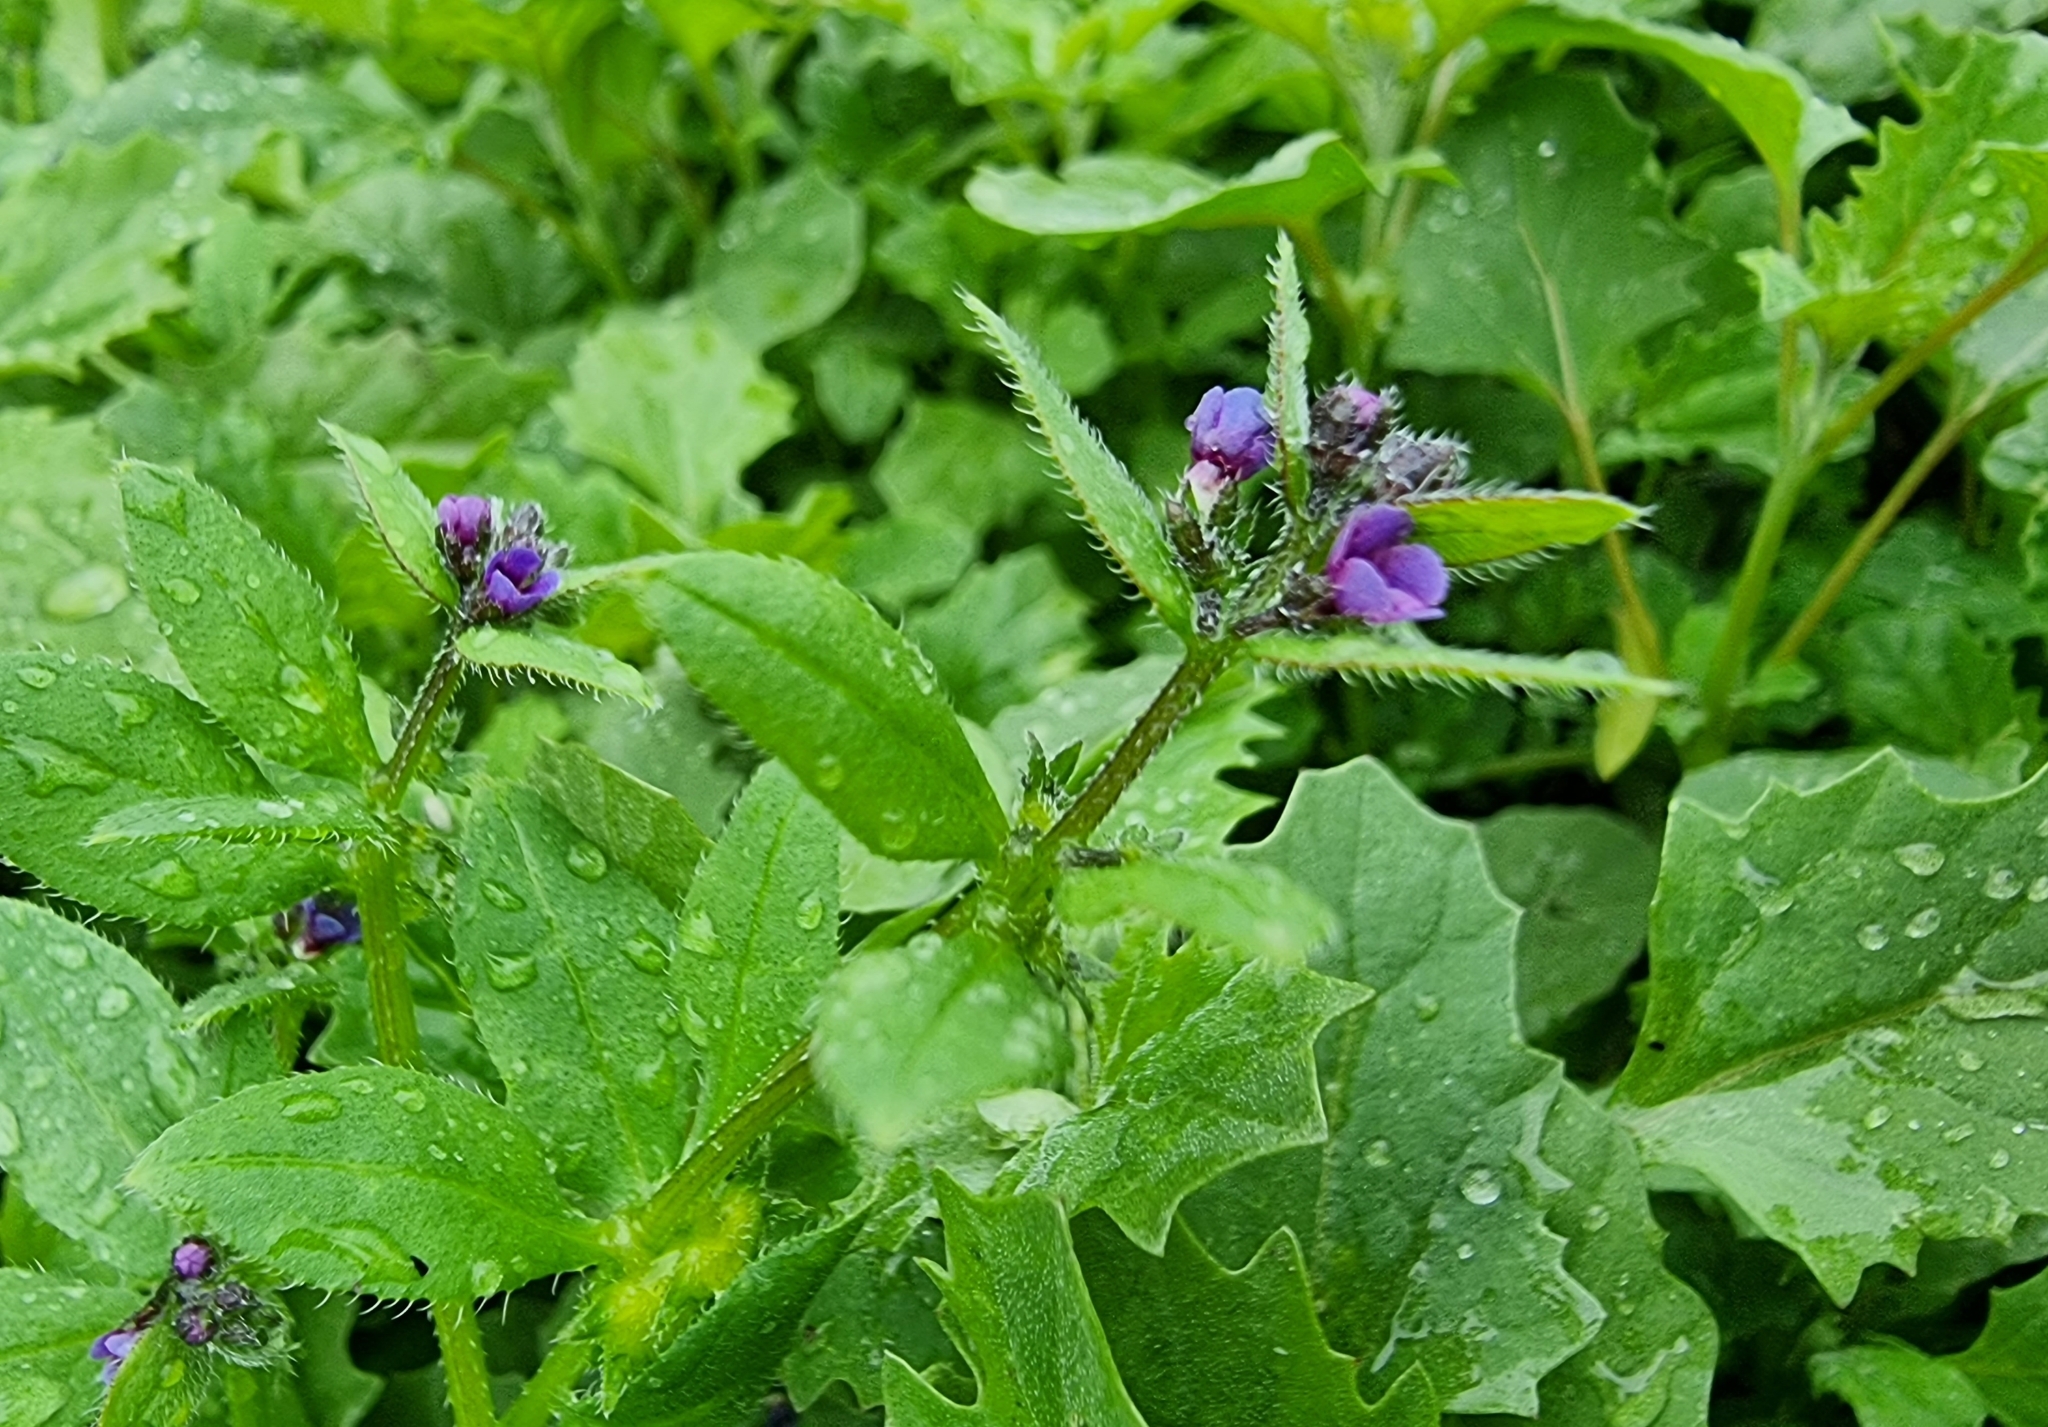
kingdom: Plantae
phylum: Tracheophyta
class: Magnoliopsida
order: Boraginales
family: Boraginaceae
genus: Asperugo
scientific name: Asperugo procumbens
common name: Madwort
